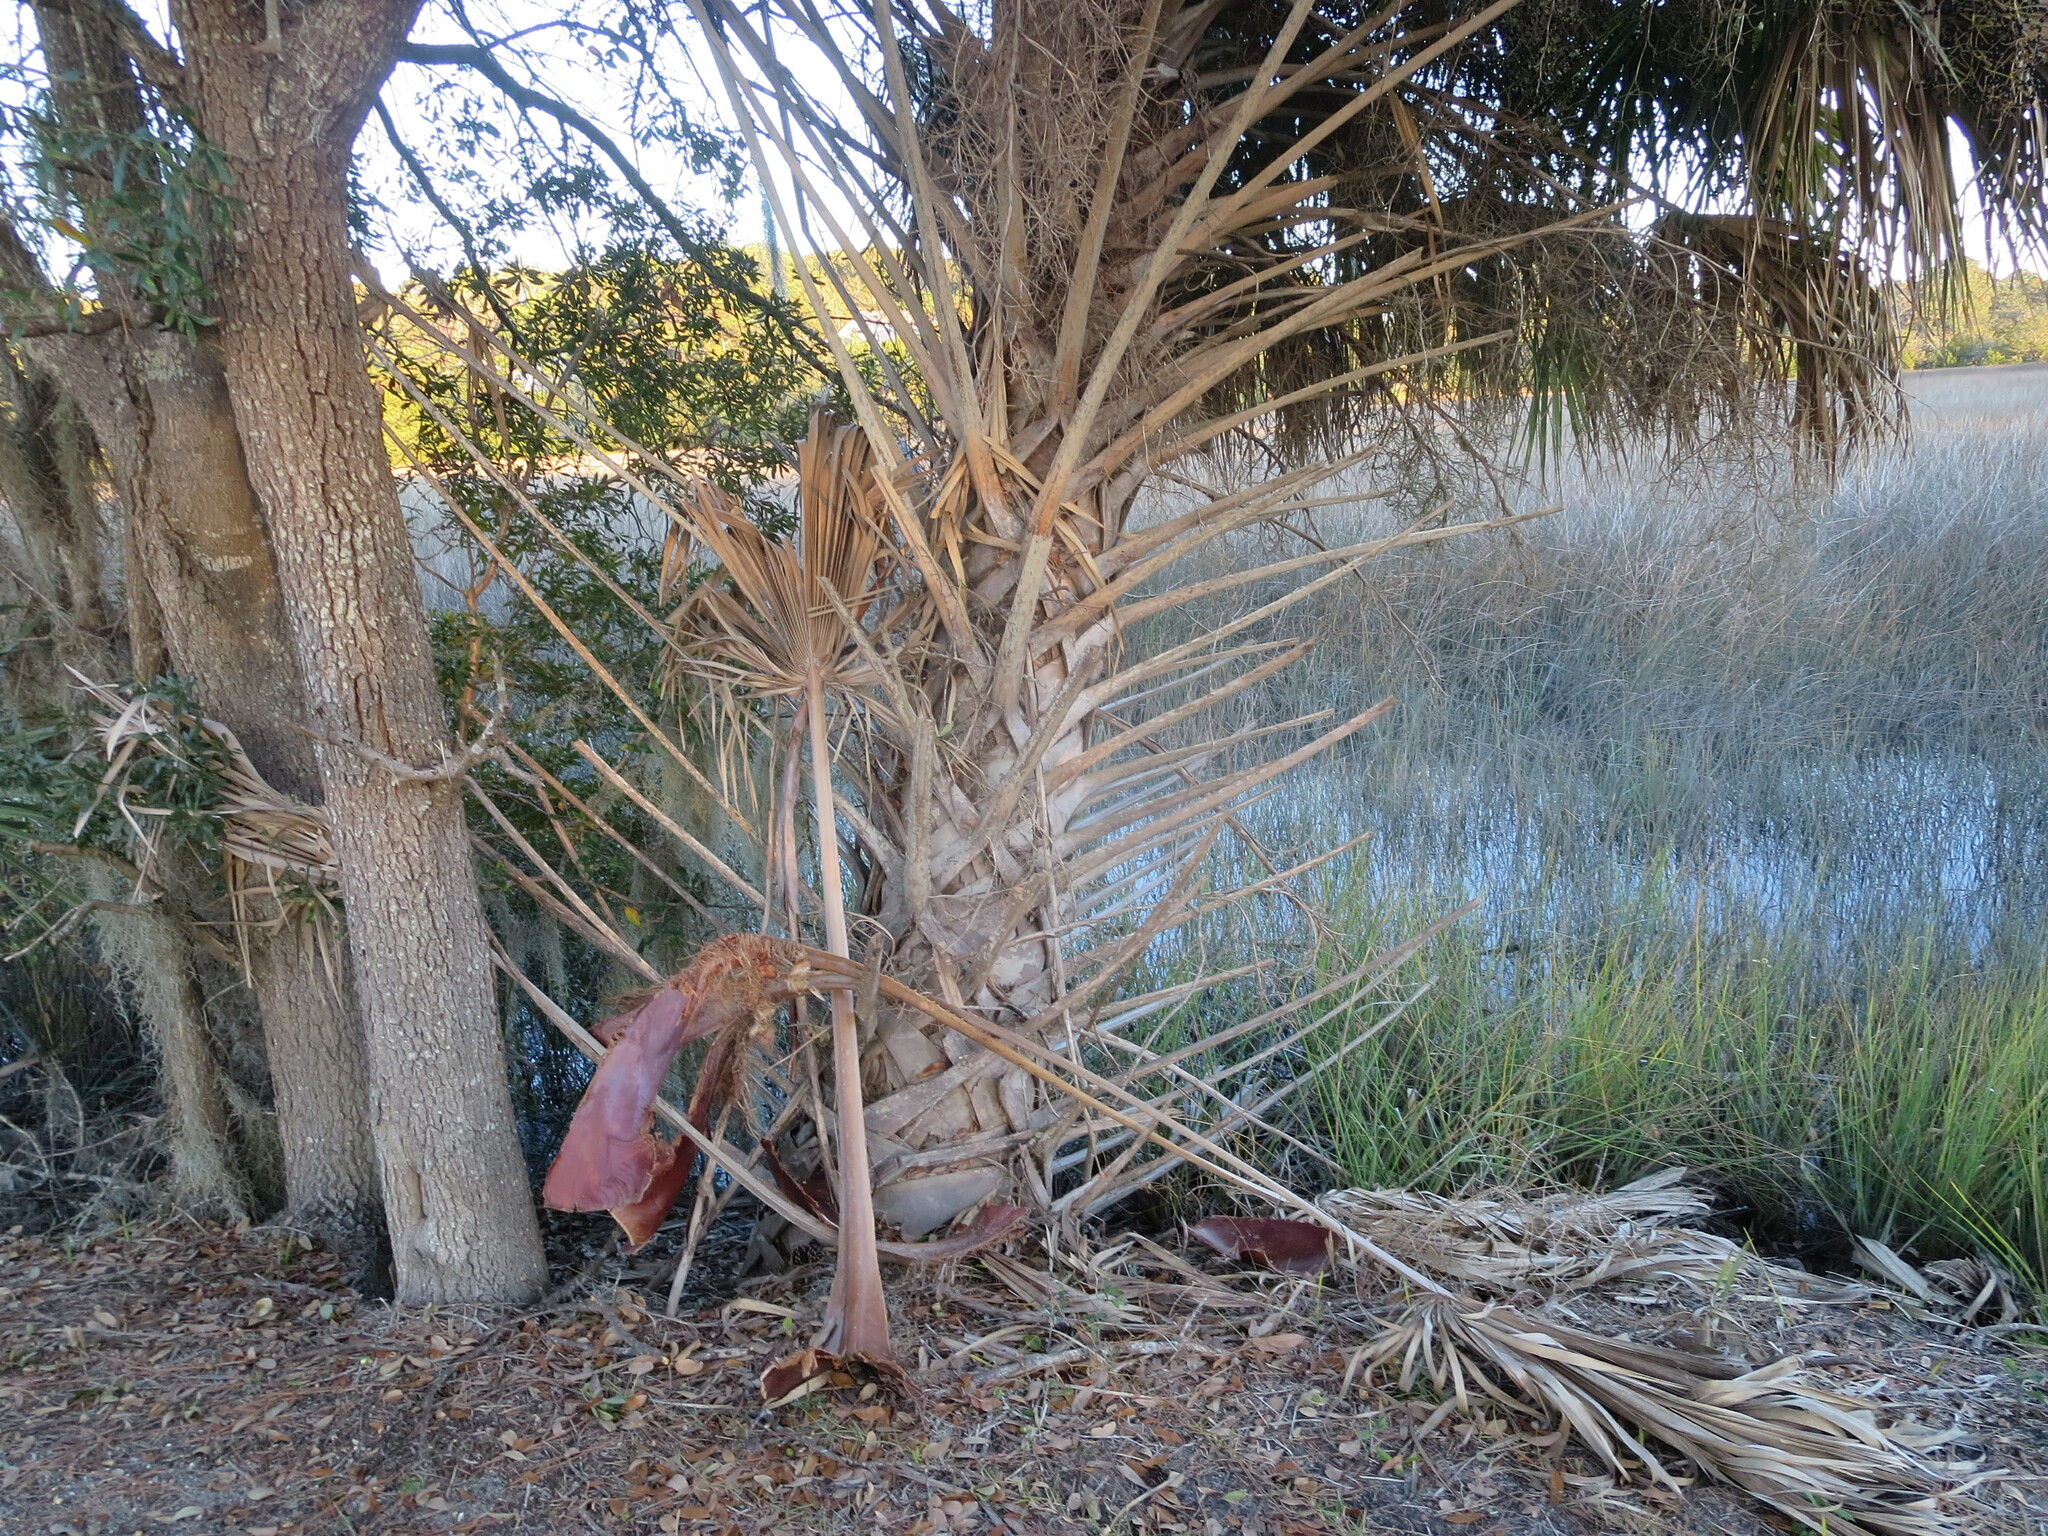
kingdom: Plantae
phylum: Tracheophyta
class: Liliopsida
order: Arecales
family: Arecaceae
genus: Sabal
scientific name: Sabal palmetto
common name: Blue palmetto
